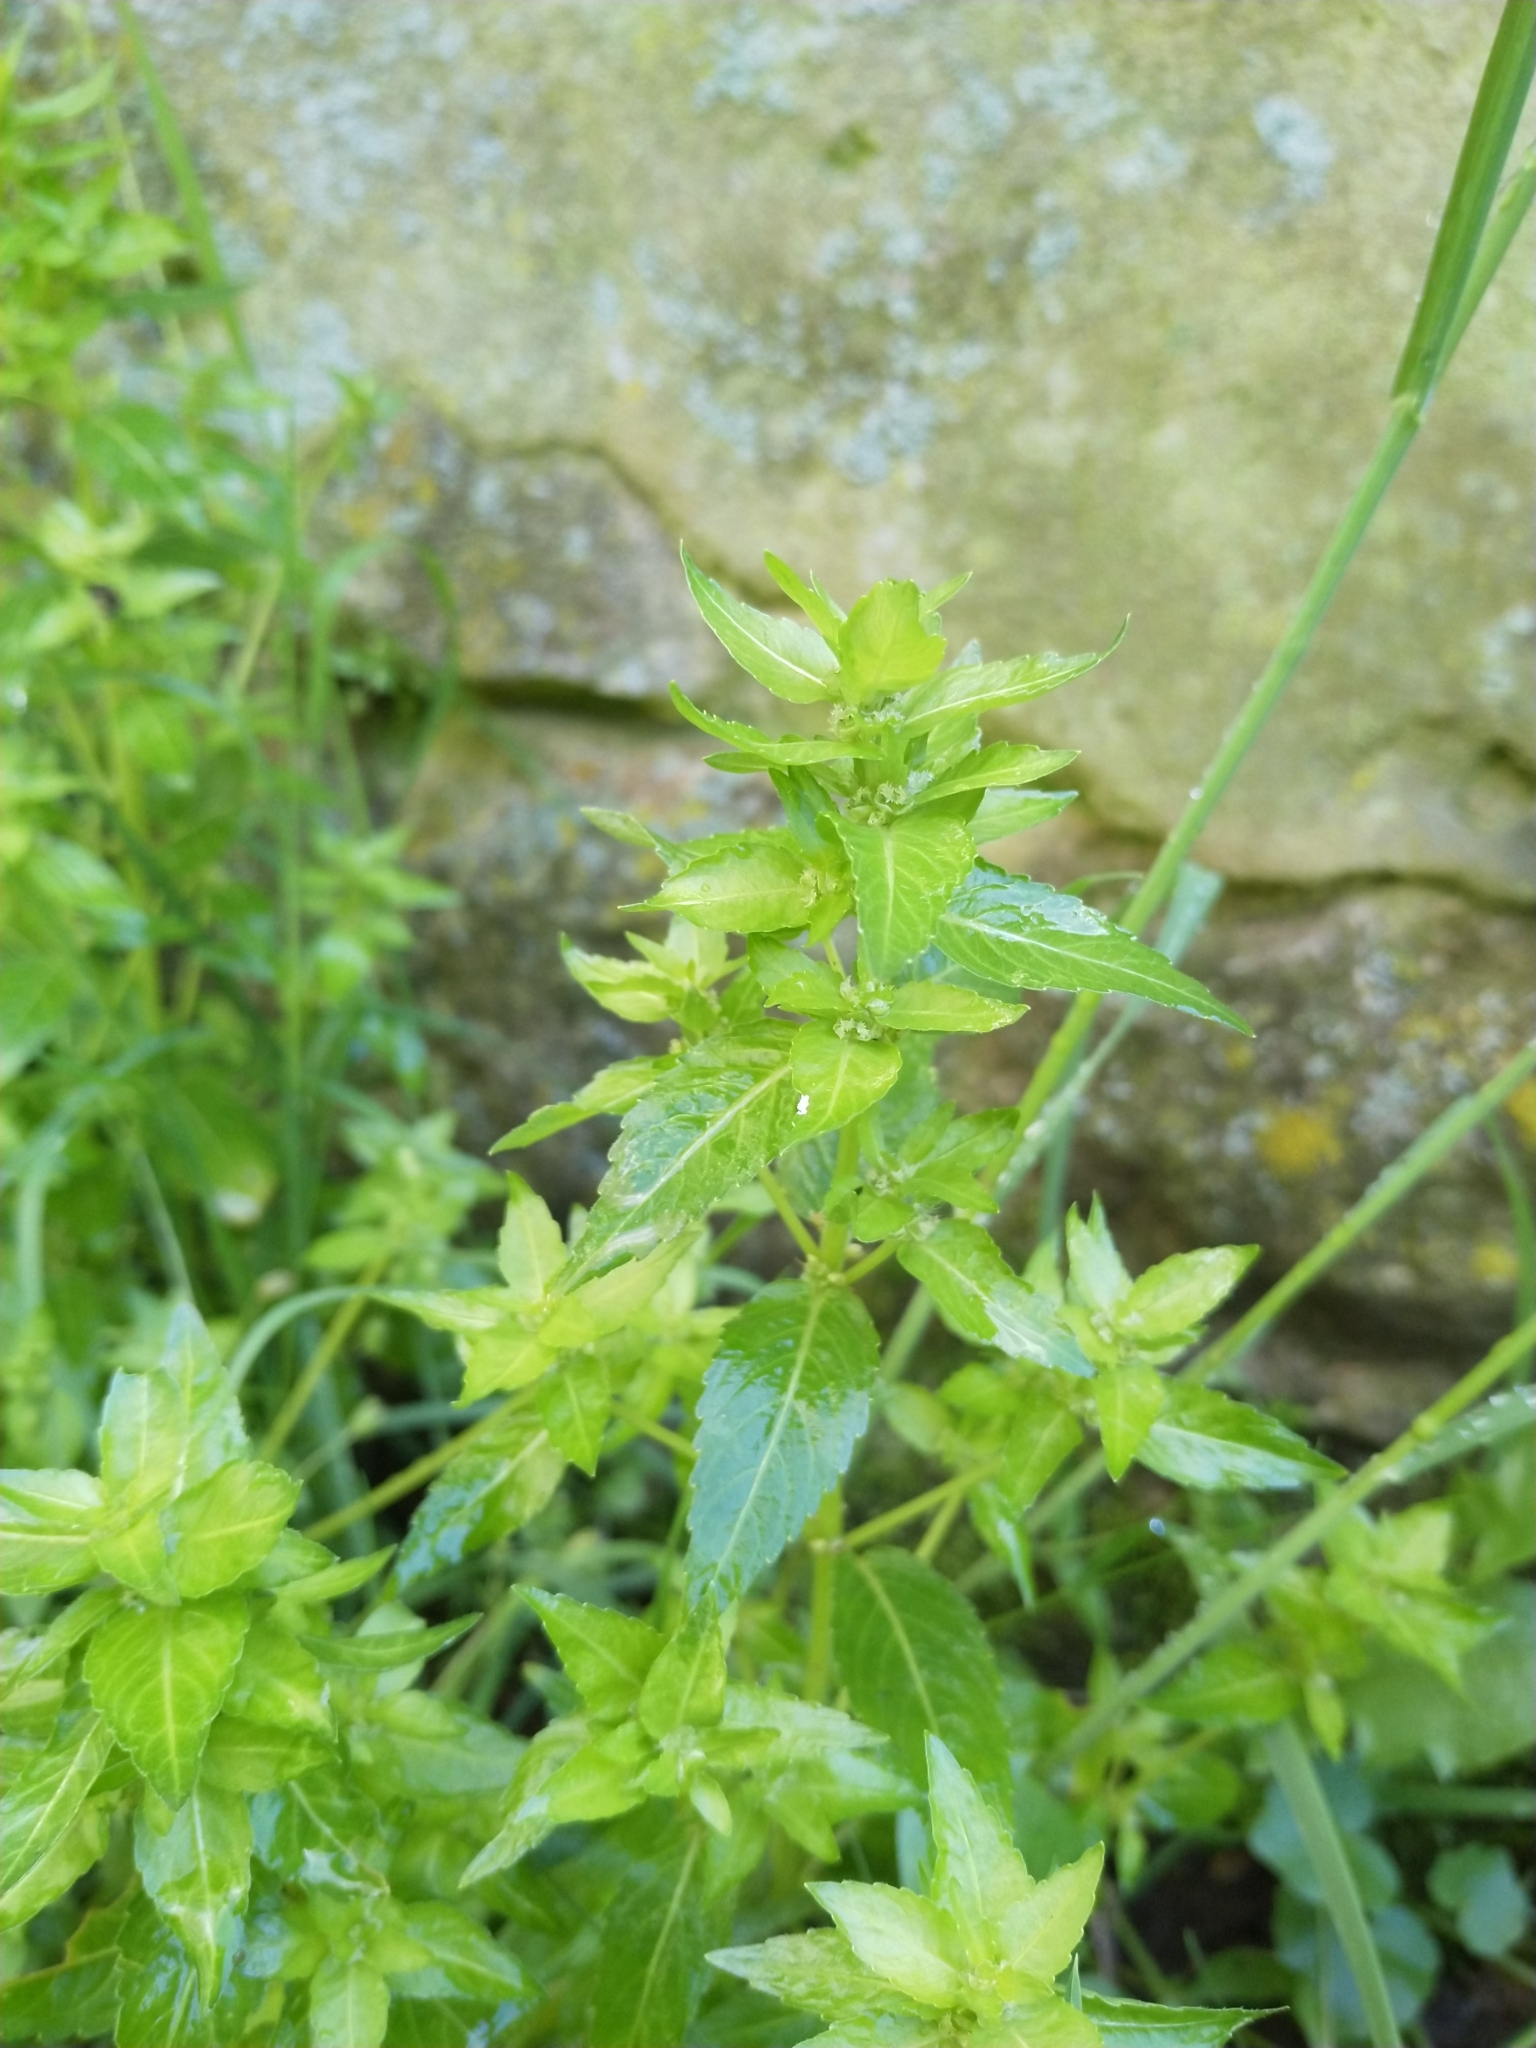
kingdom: Plantae
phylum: Tracheophyta
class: Magnoliopsida
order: Malpighiales
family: Euphorbiaceae
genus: Mercurialis
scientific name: Mercurialis annua
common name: Annual mercury
